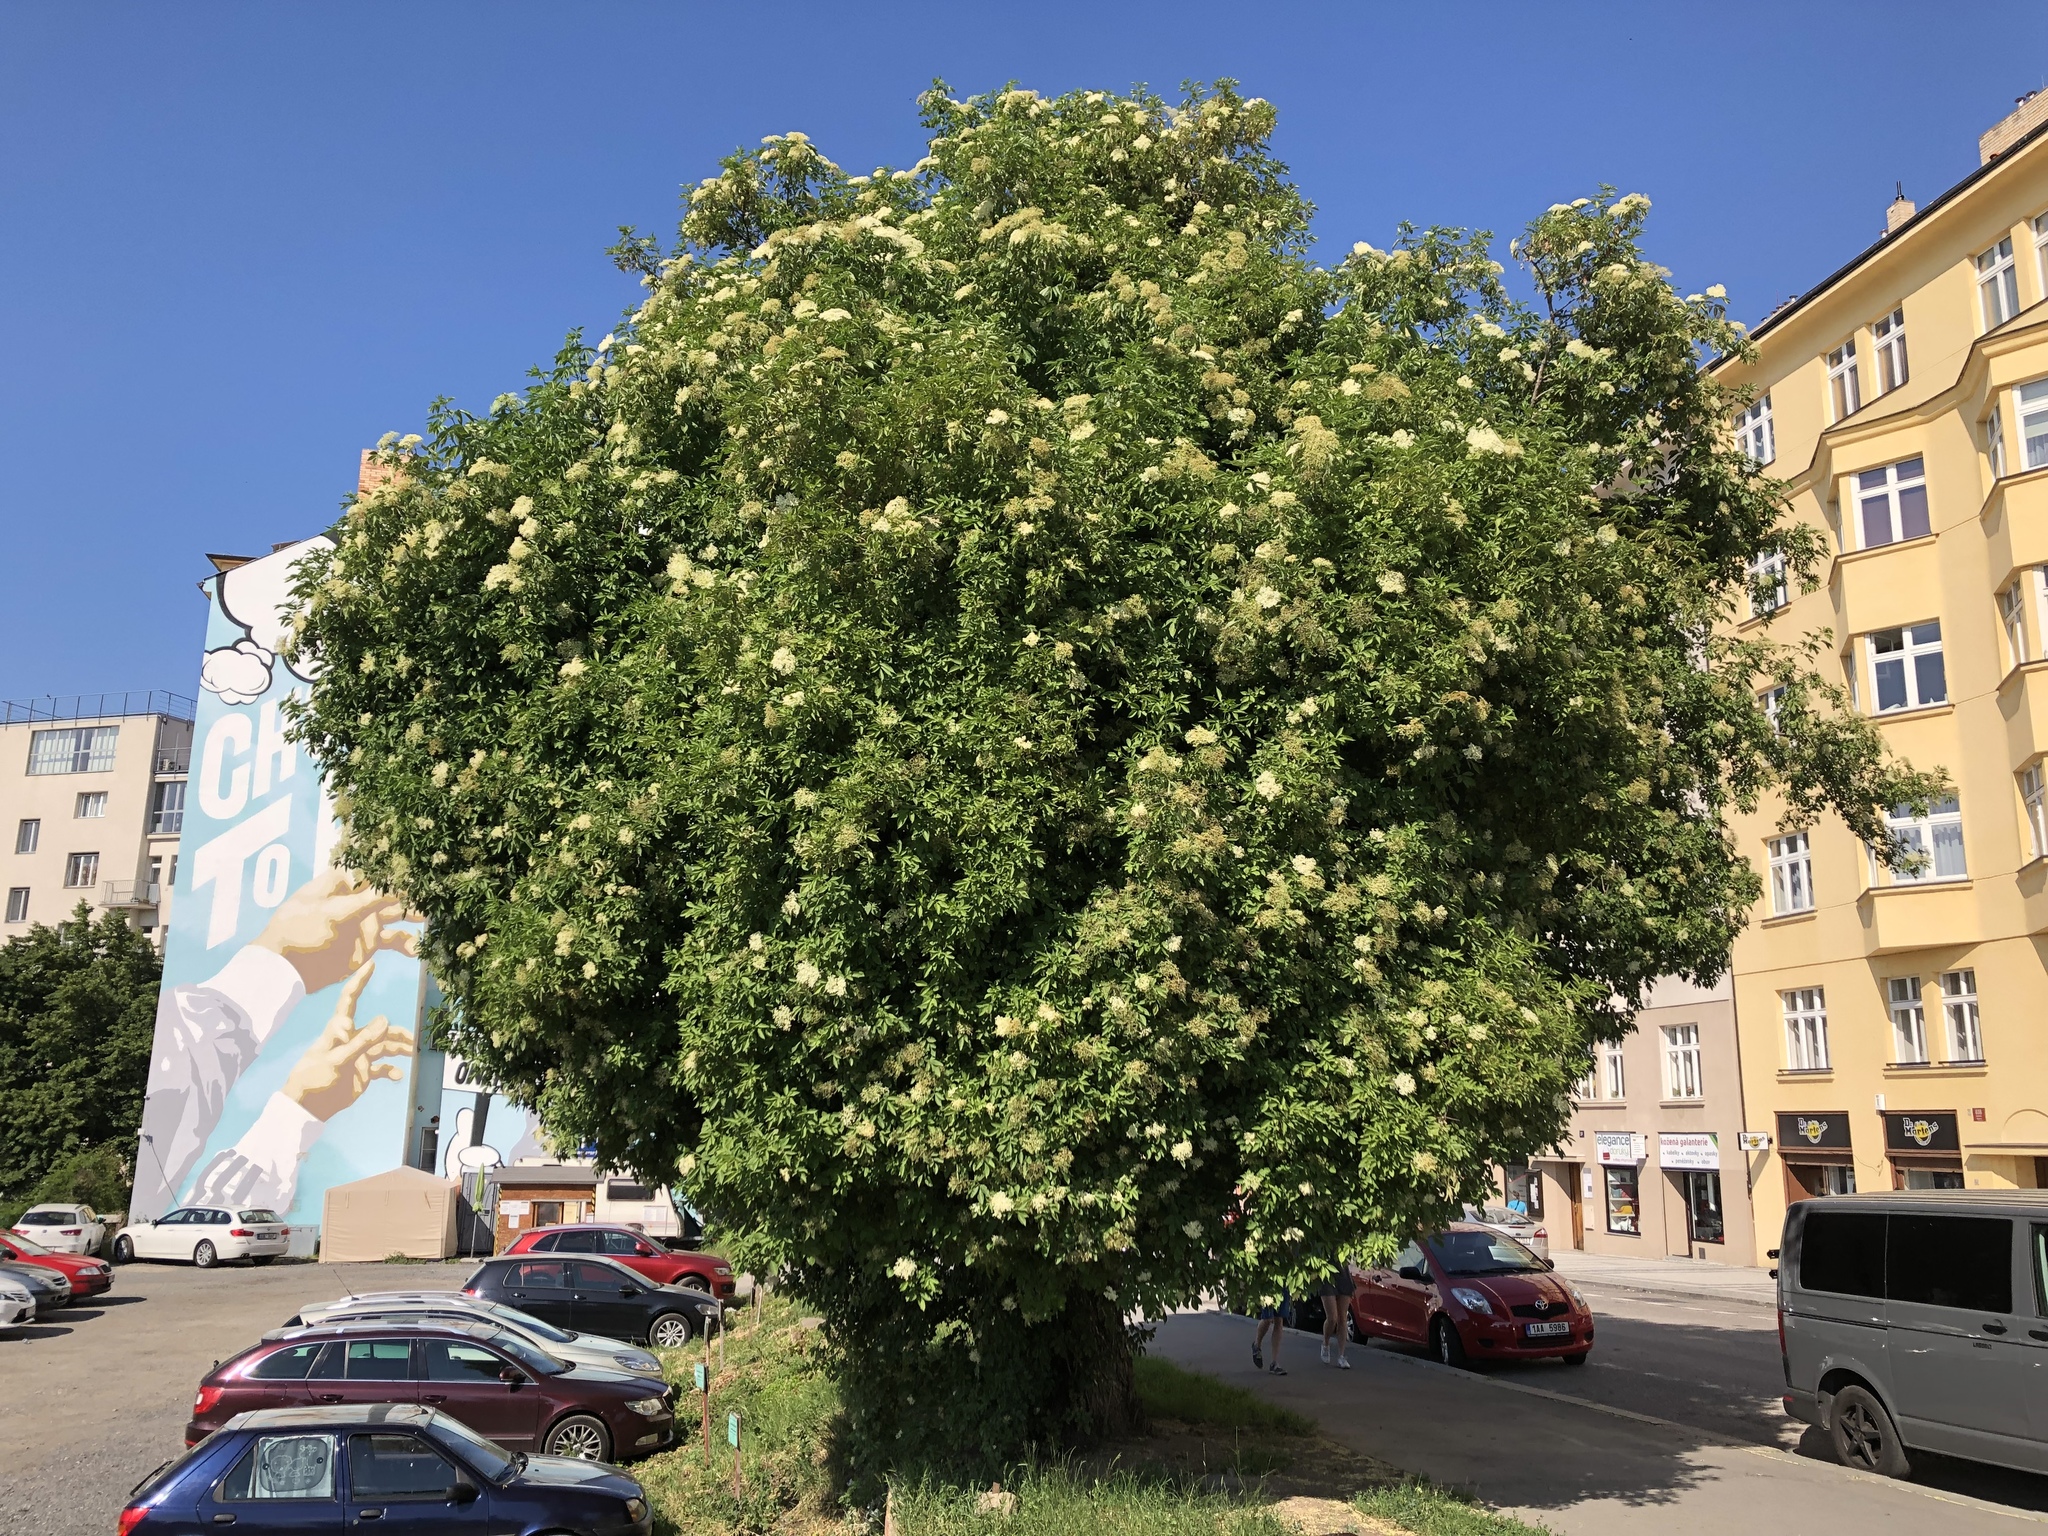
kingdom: Plantae
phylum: Tracheophyta
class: Magnoliopsida
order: Dipsacales
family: Viburnaceae
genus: Sambucus
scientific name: Sambucus nigra
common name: Elder
